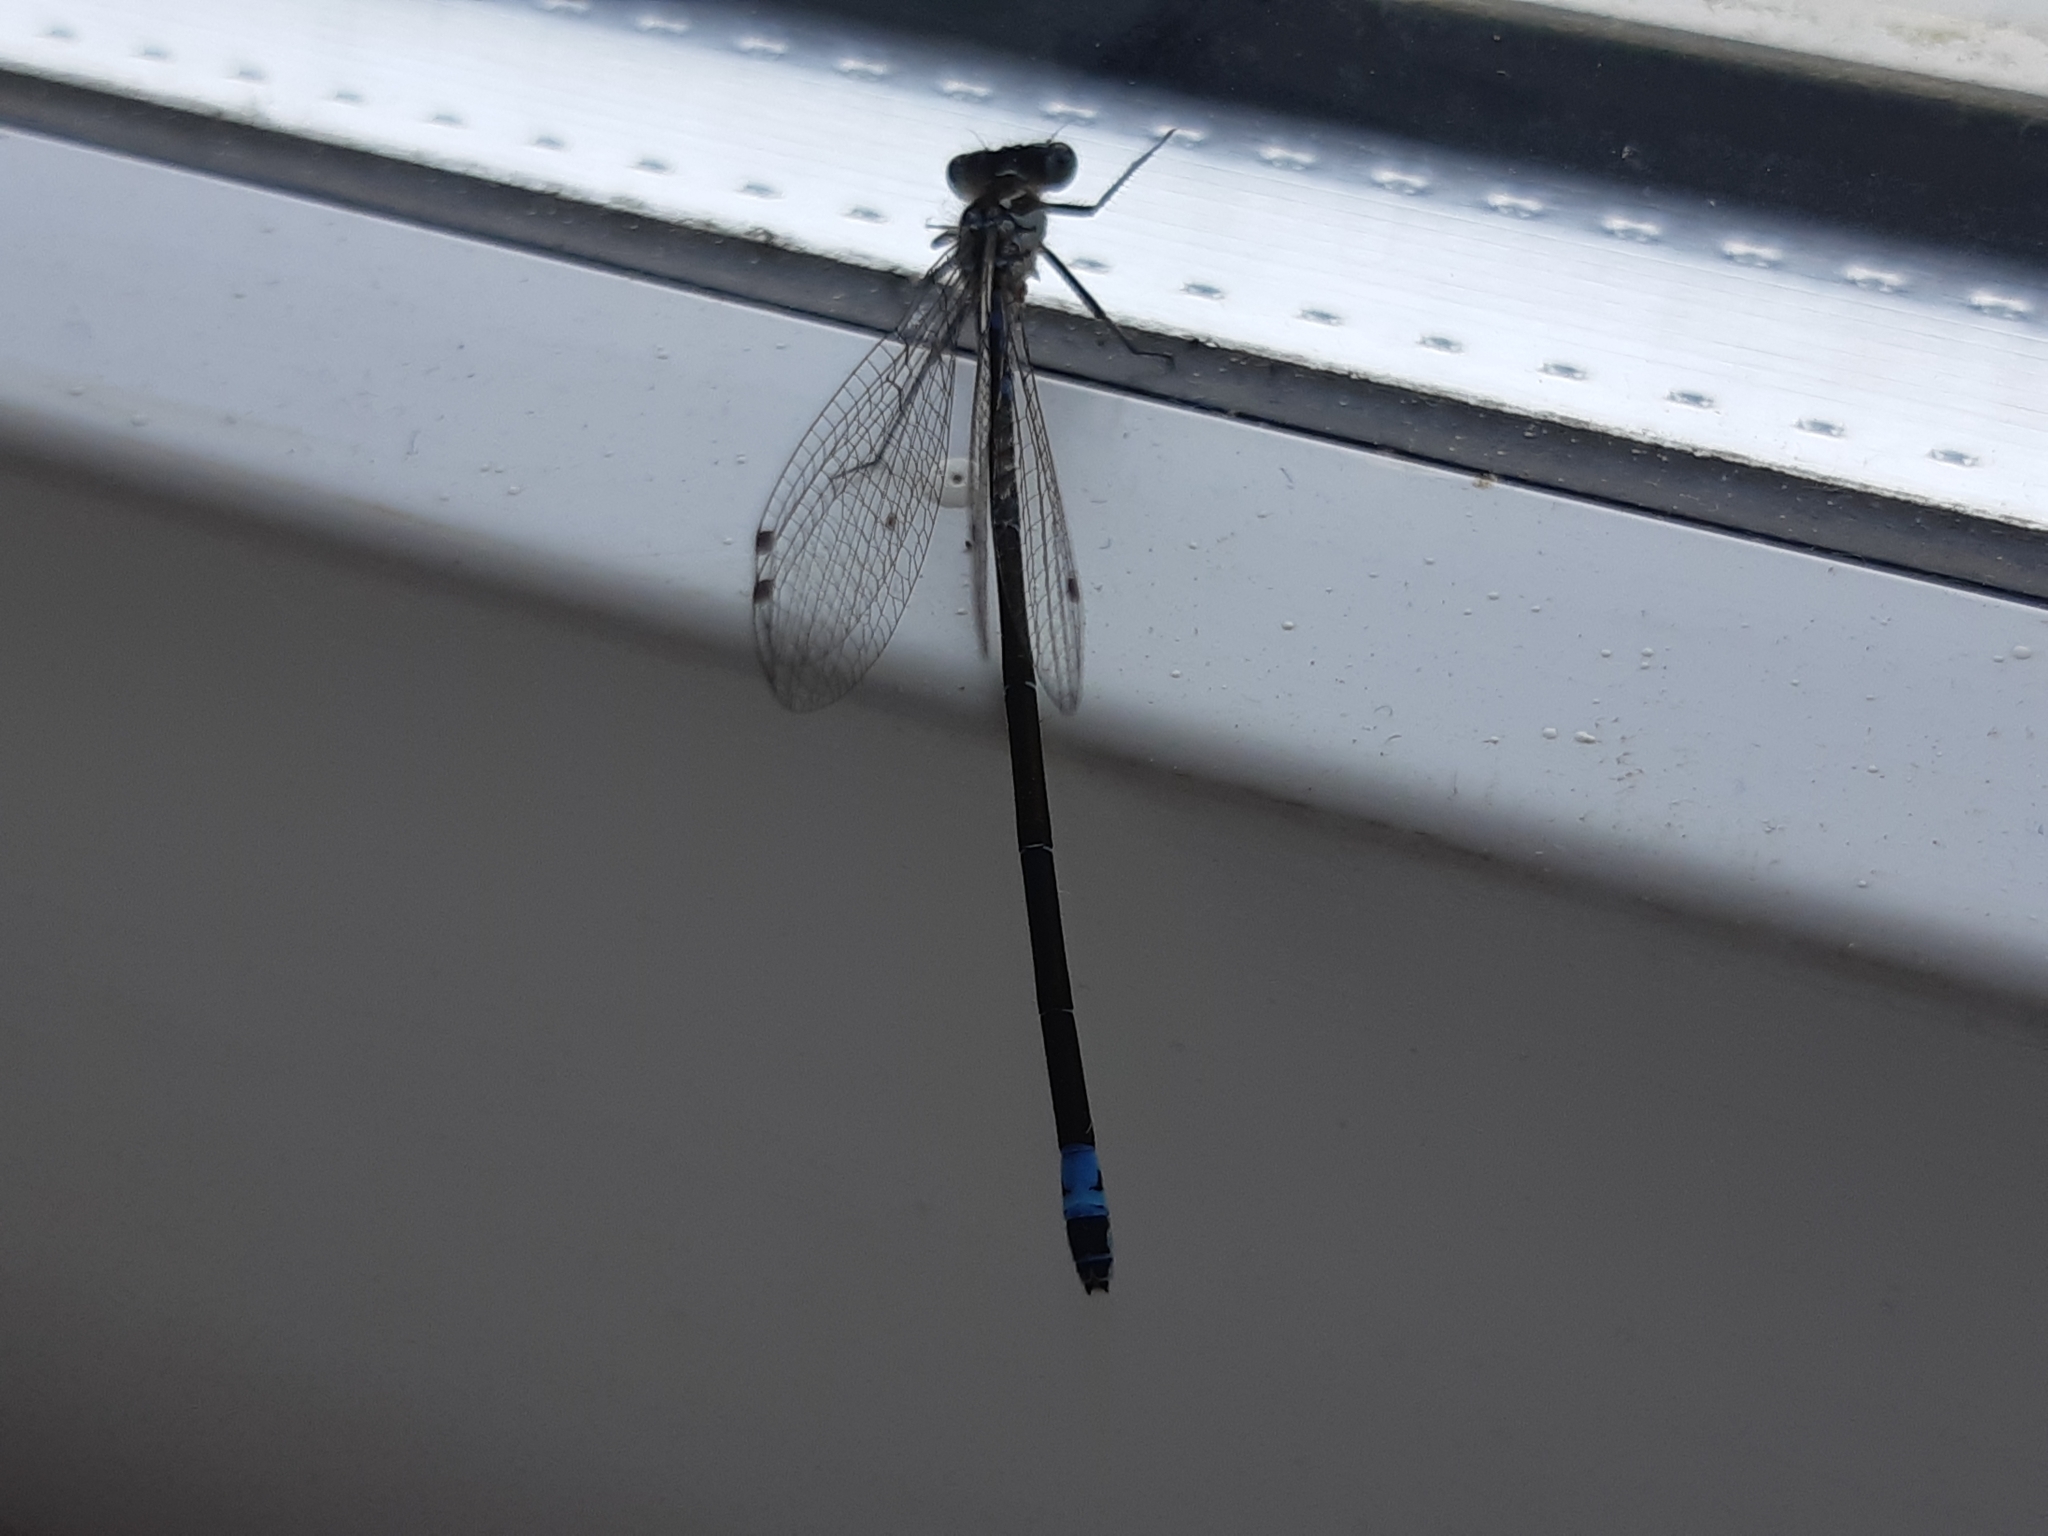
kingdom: Animalia
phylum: Arthropoda
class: Insecta
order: Odonata
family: Coenagrionidae
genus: Coenagrion
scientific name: Coenagrion pulchellum
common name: Variable bluet
